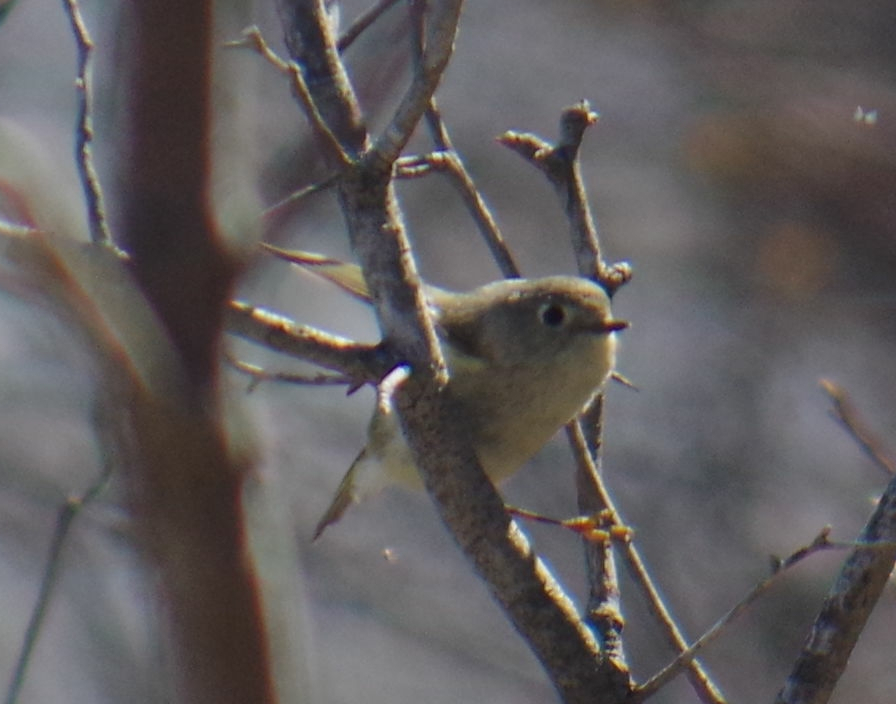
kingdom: Animalia
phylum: Chordata
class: Aves
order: Passeriformes
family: Regulidae
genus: Regulus
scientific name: Regulus calendula
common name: Ruby-crowned kinglet
